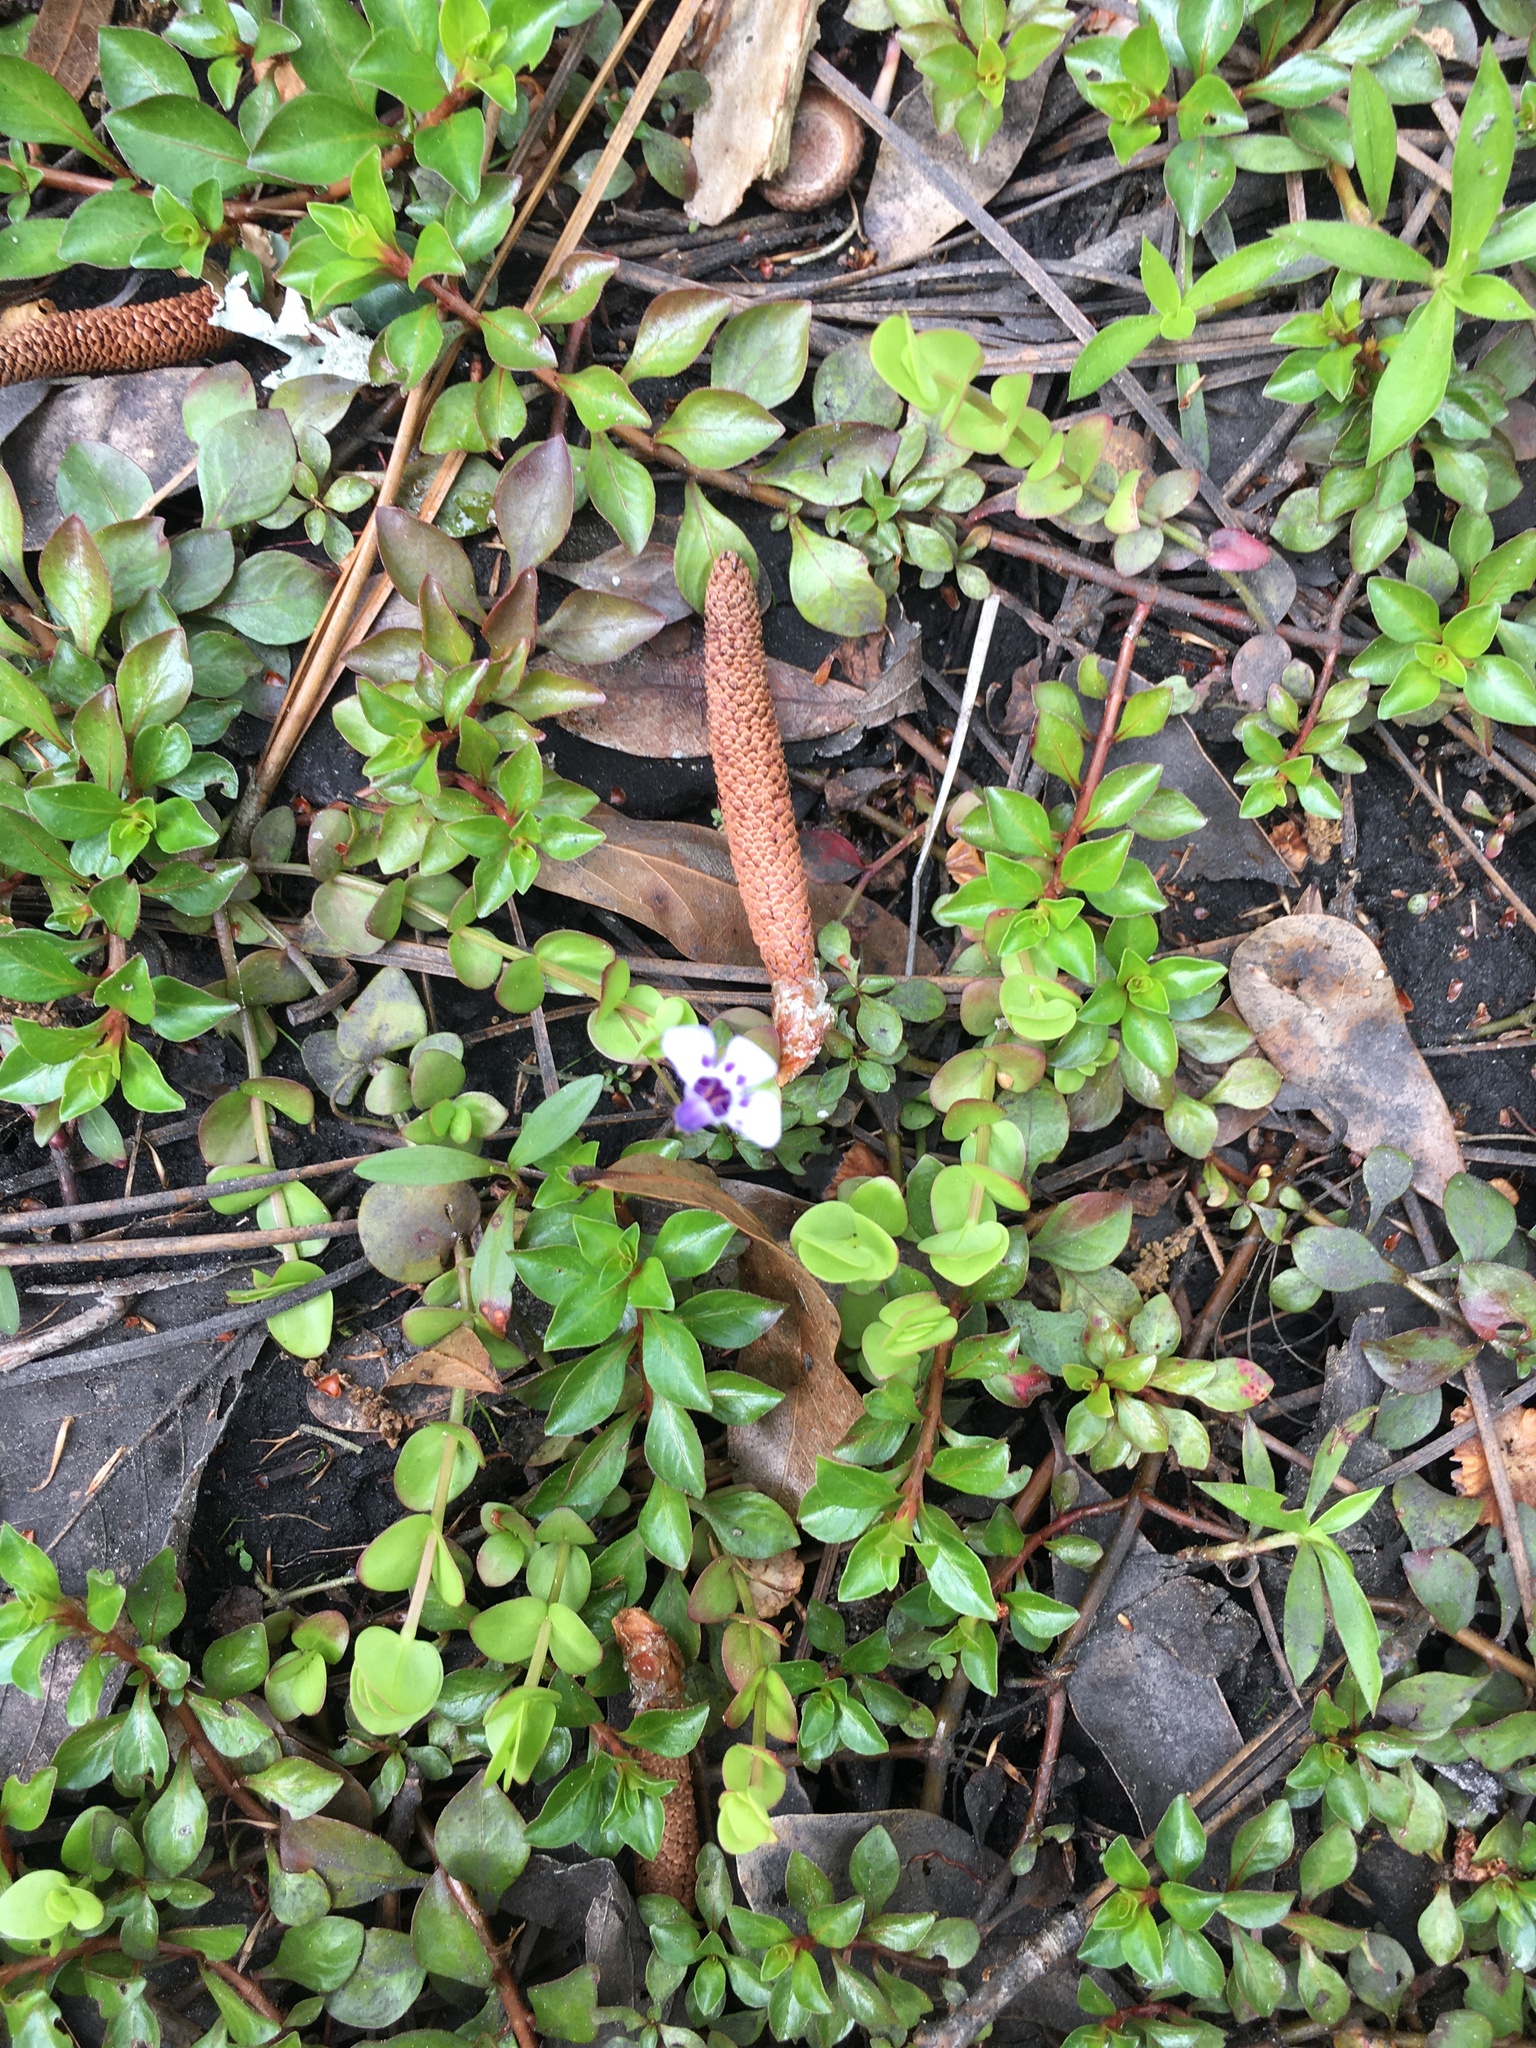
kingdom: Plantae
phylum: Tracheophyta
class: Magnoliopsida
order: Lamiales
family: Linderniaceae
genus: Lindernia
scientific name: Lindernia grandiflora
